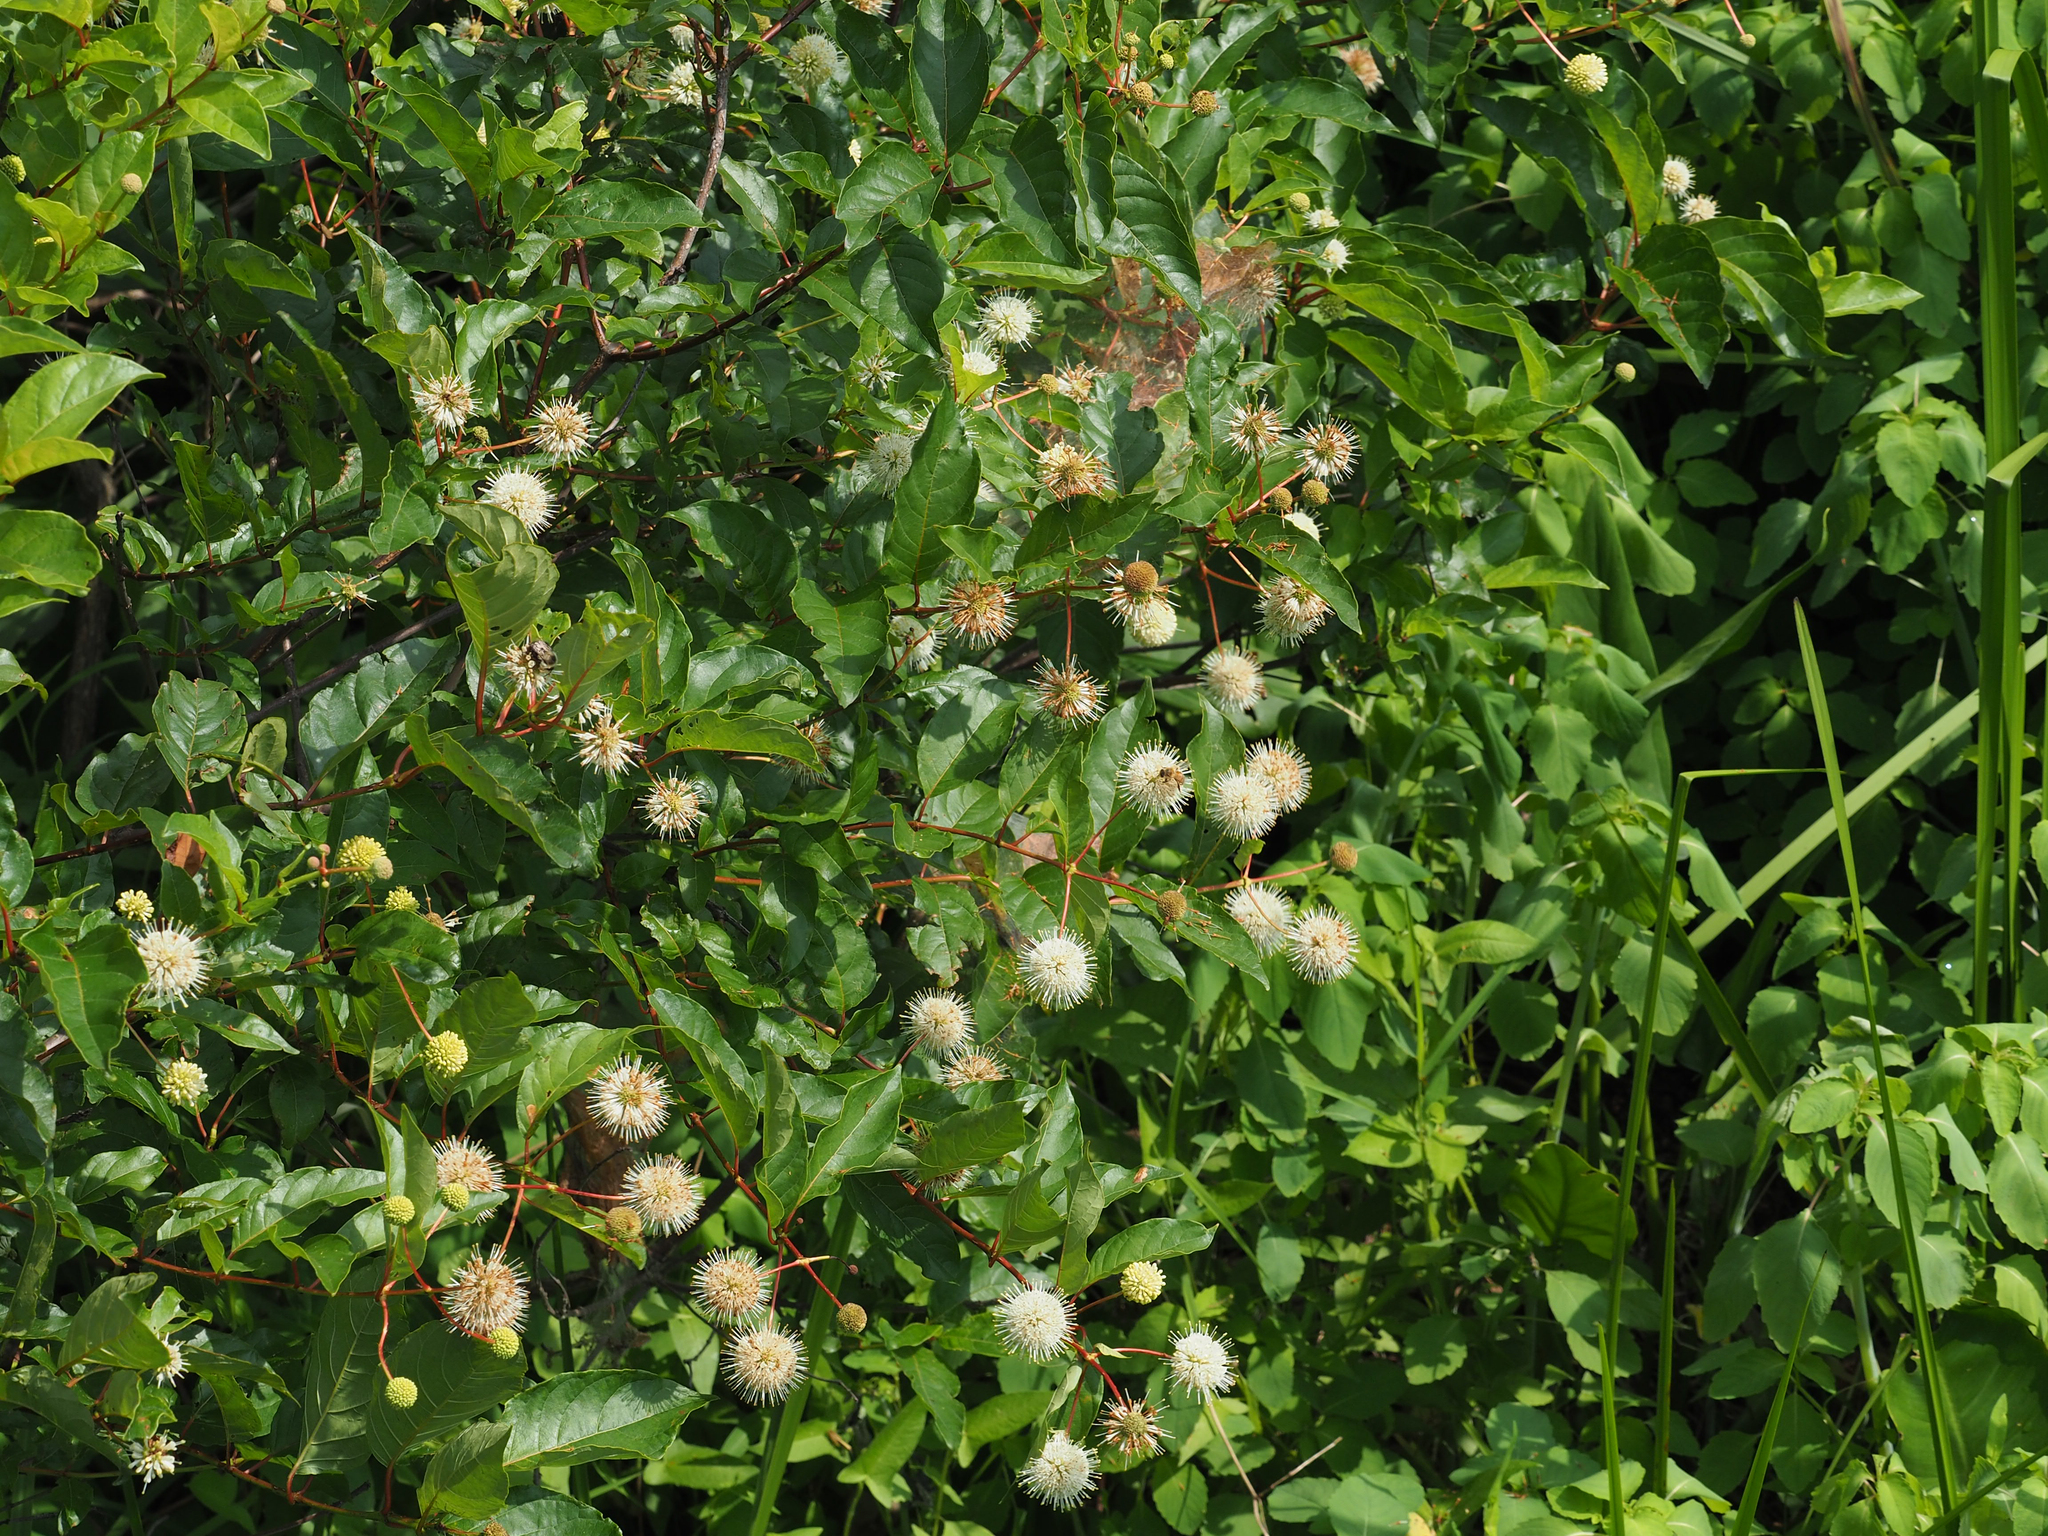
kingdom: Plantae
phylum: Tracheophyta
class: Magnoliopsida
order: Gentianales
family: Rubiaceae
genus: Cephalanthus
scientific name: Cephalanthus occidentalis
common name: Button-willow
